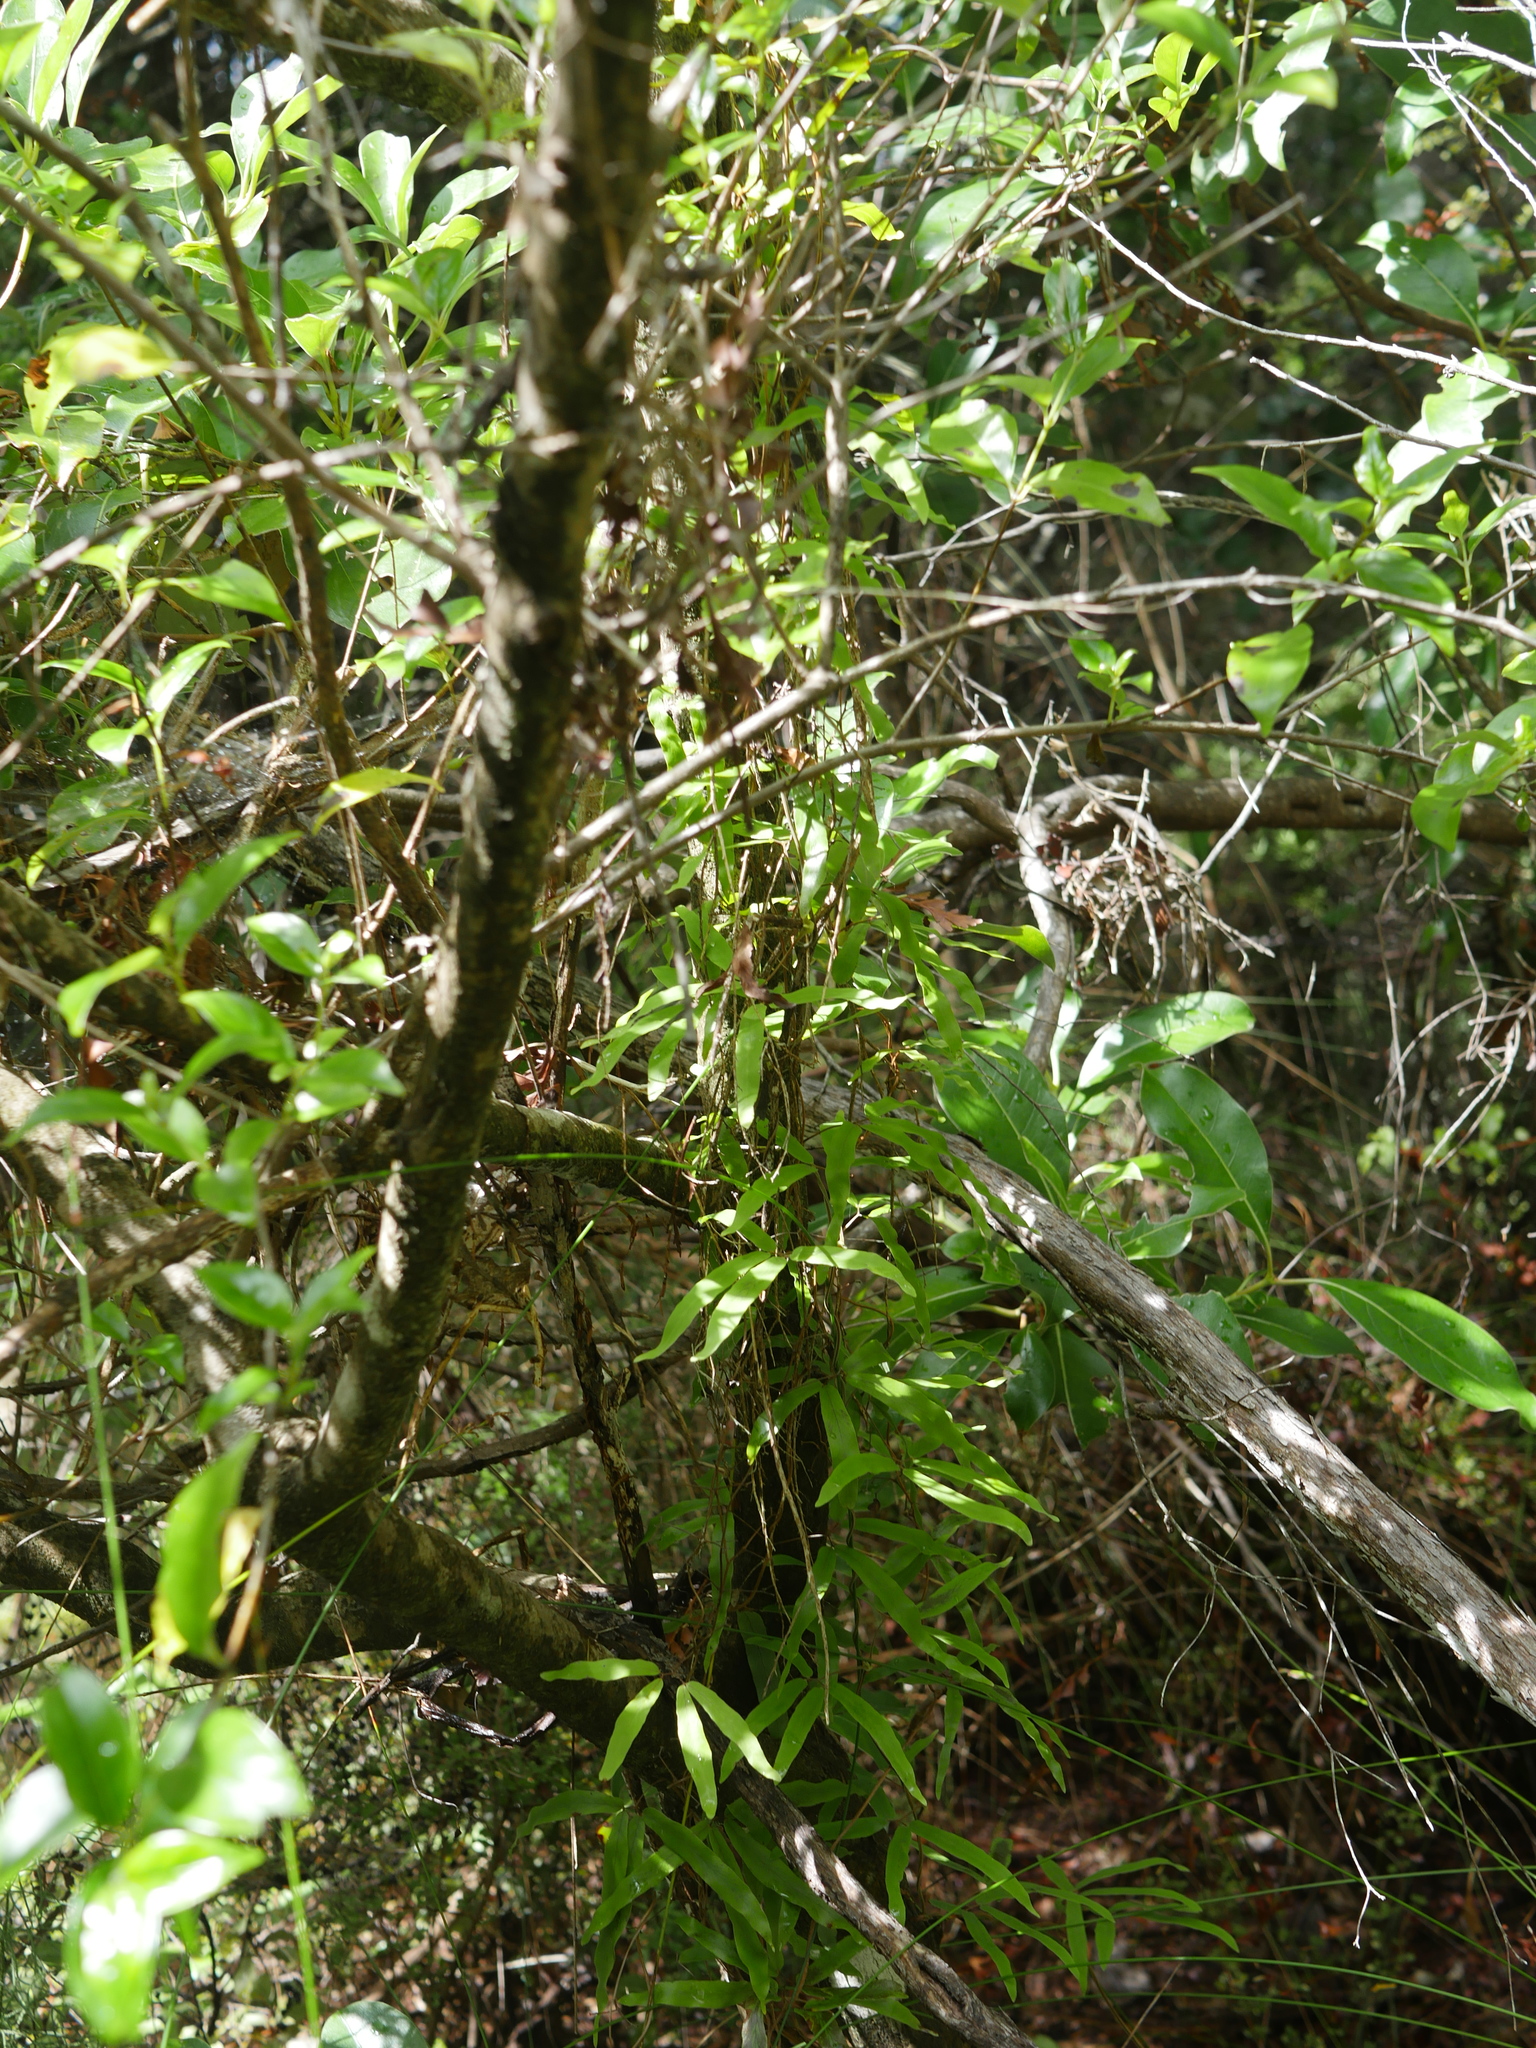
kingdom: Plantae
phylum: Tracheophyta
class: Polypodiopsida
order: Schizaeales
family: Lygodiaceae
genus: Lygodium
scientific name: Lygodium articulatum
